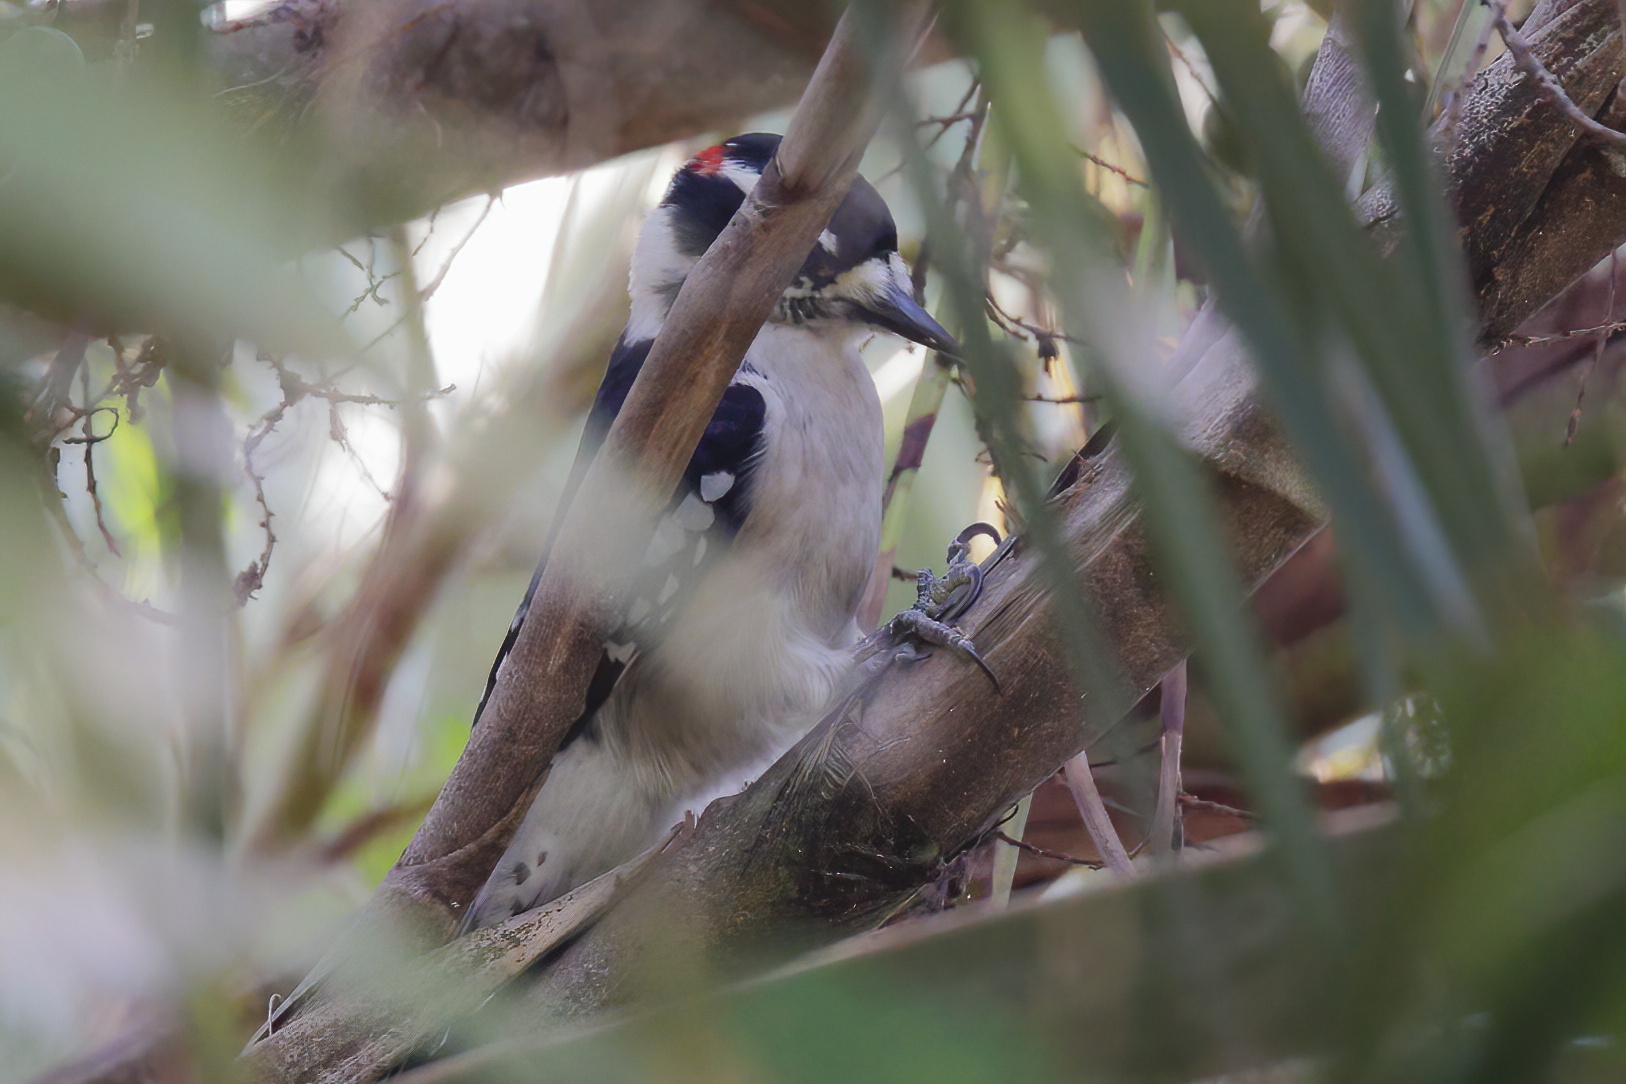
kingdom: Animalia
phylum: Chordata
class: Aves
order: Piciformes
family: Picidae
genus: Dryobates
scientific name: Dryobates pubescens
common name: Downy woodpecker
